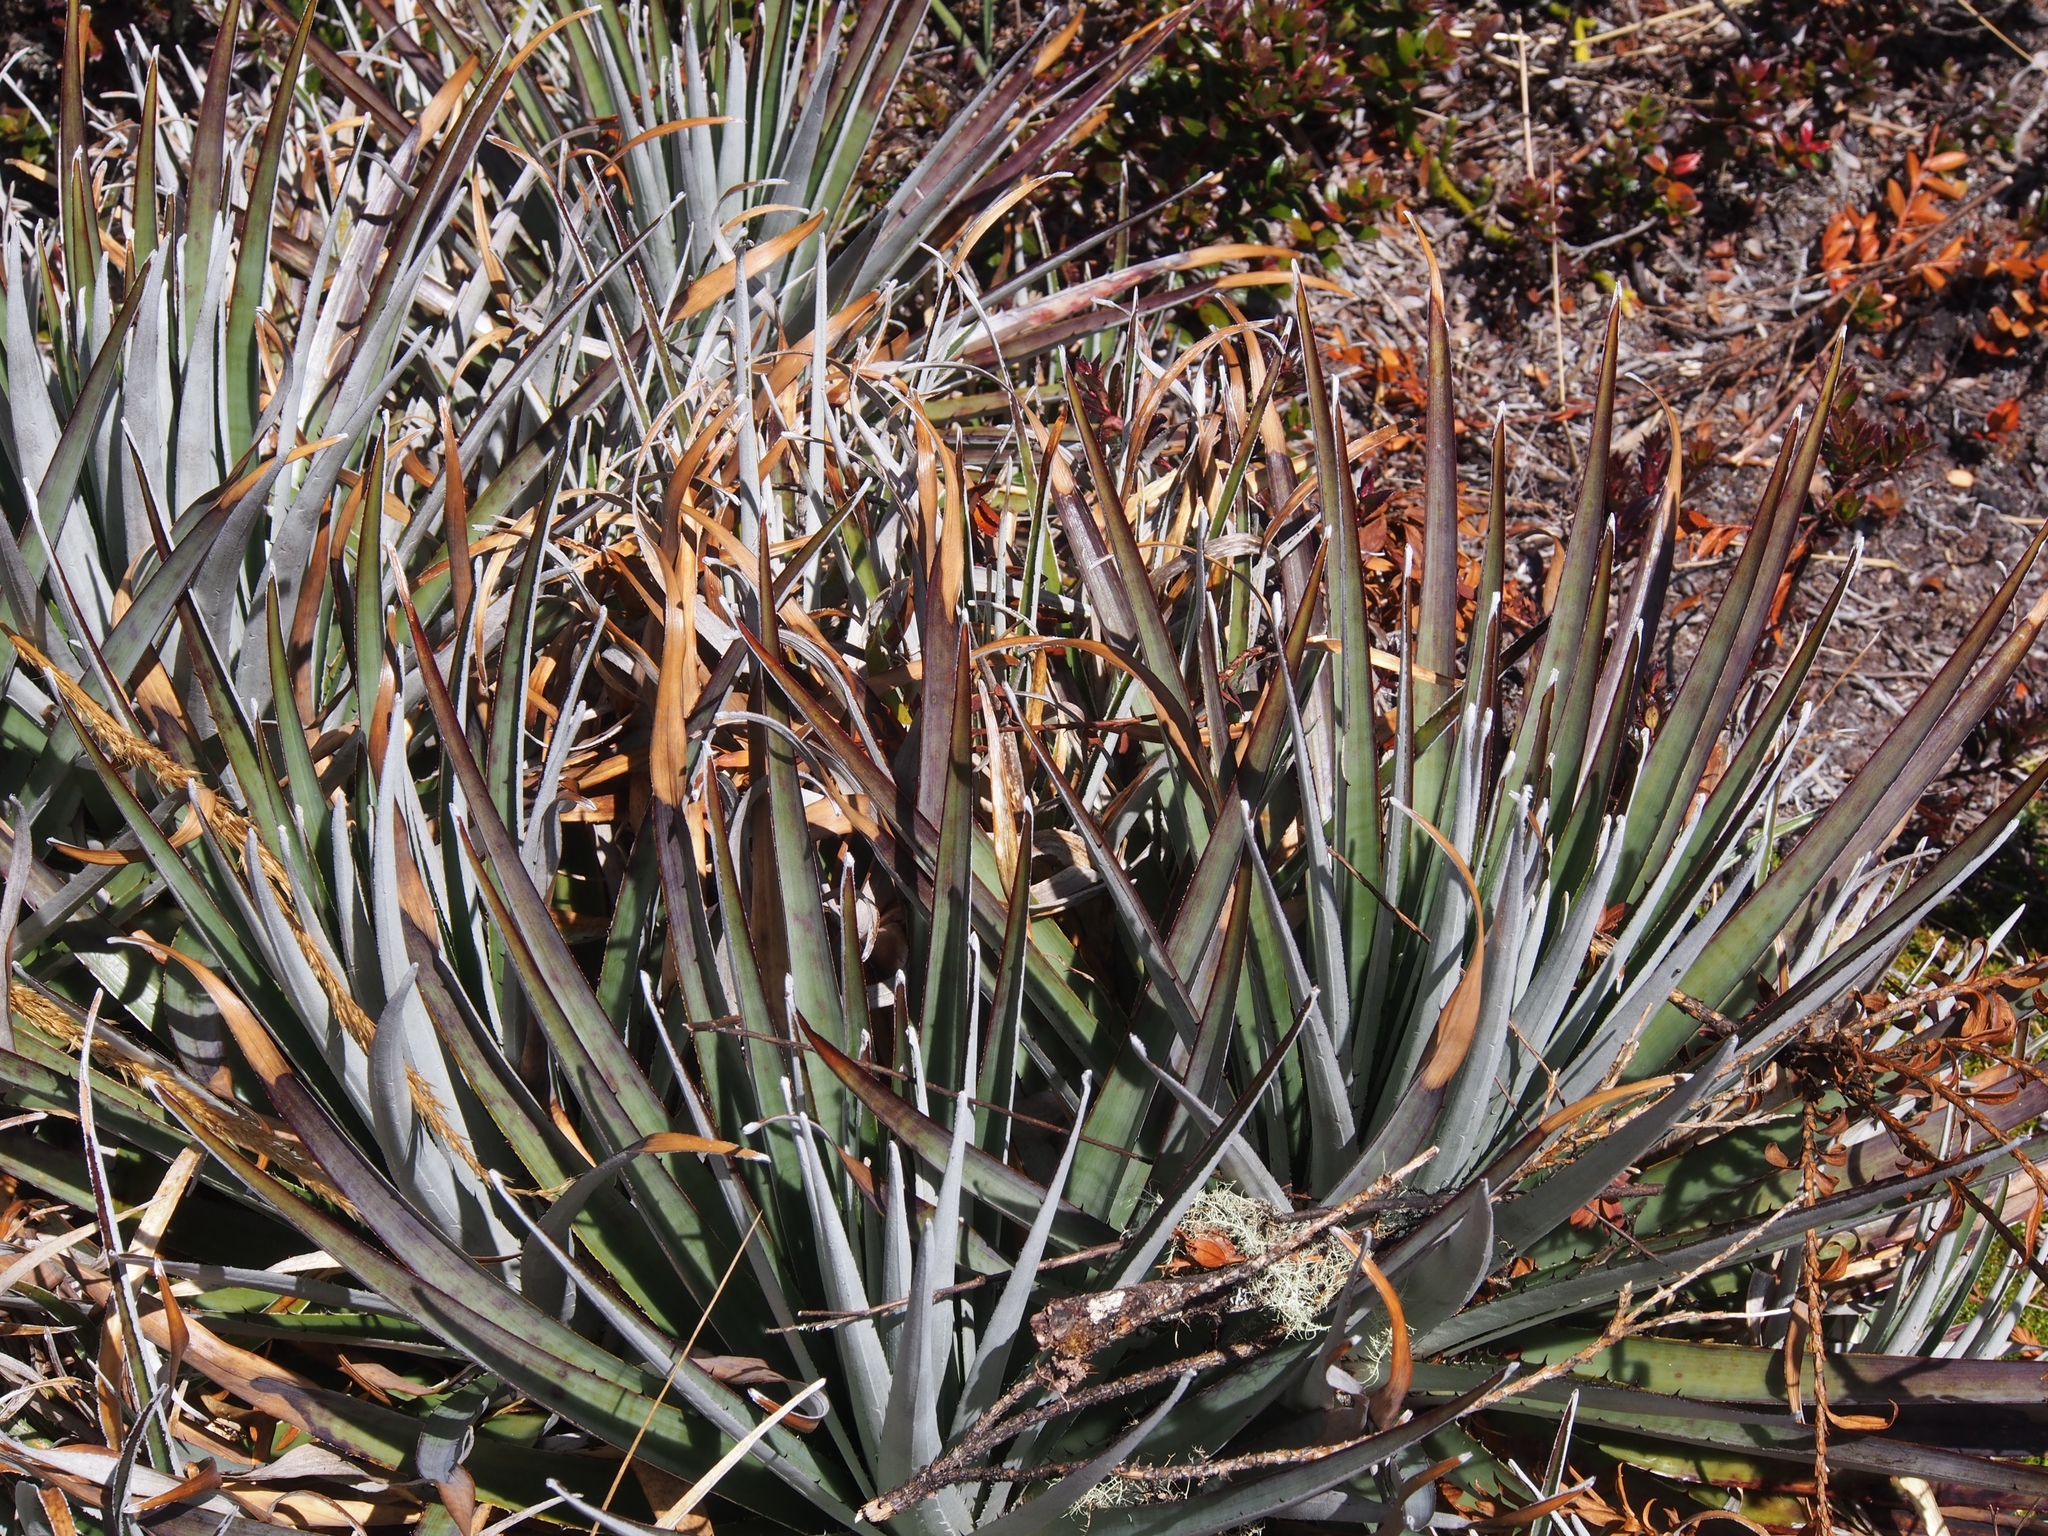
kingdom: Plantae
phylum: Tracheophyta
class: Liliopsida
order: Poales
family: Bromeliaceae
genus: Puya
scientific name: Puya dasylirioides
